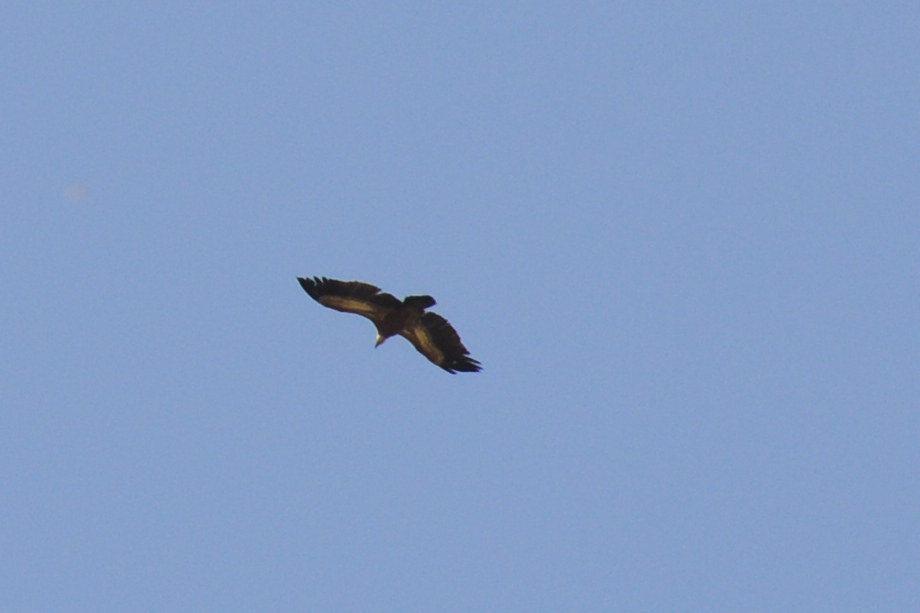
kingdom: Animalia
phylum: Chordata
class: Aves
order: Accipitriformes
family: Accipitridae
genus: Gyps
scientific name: Gyps fulvus
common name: Griffon vulture
